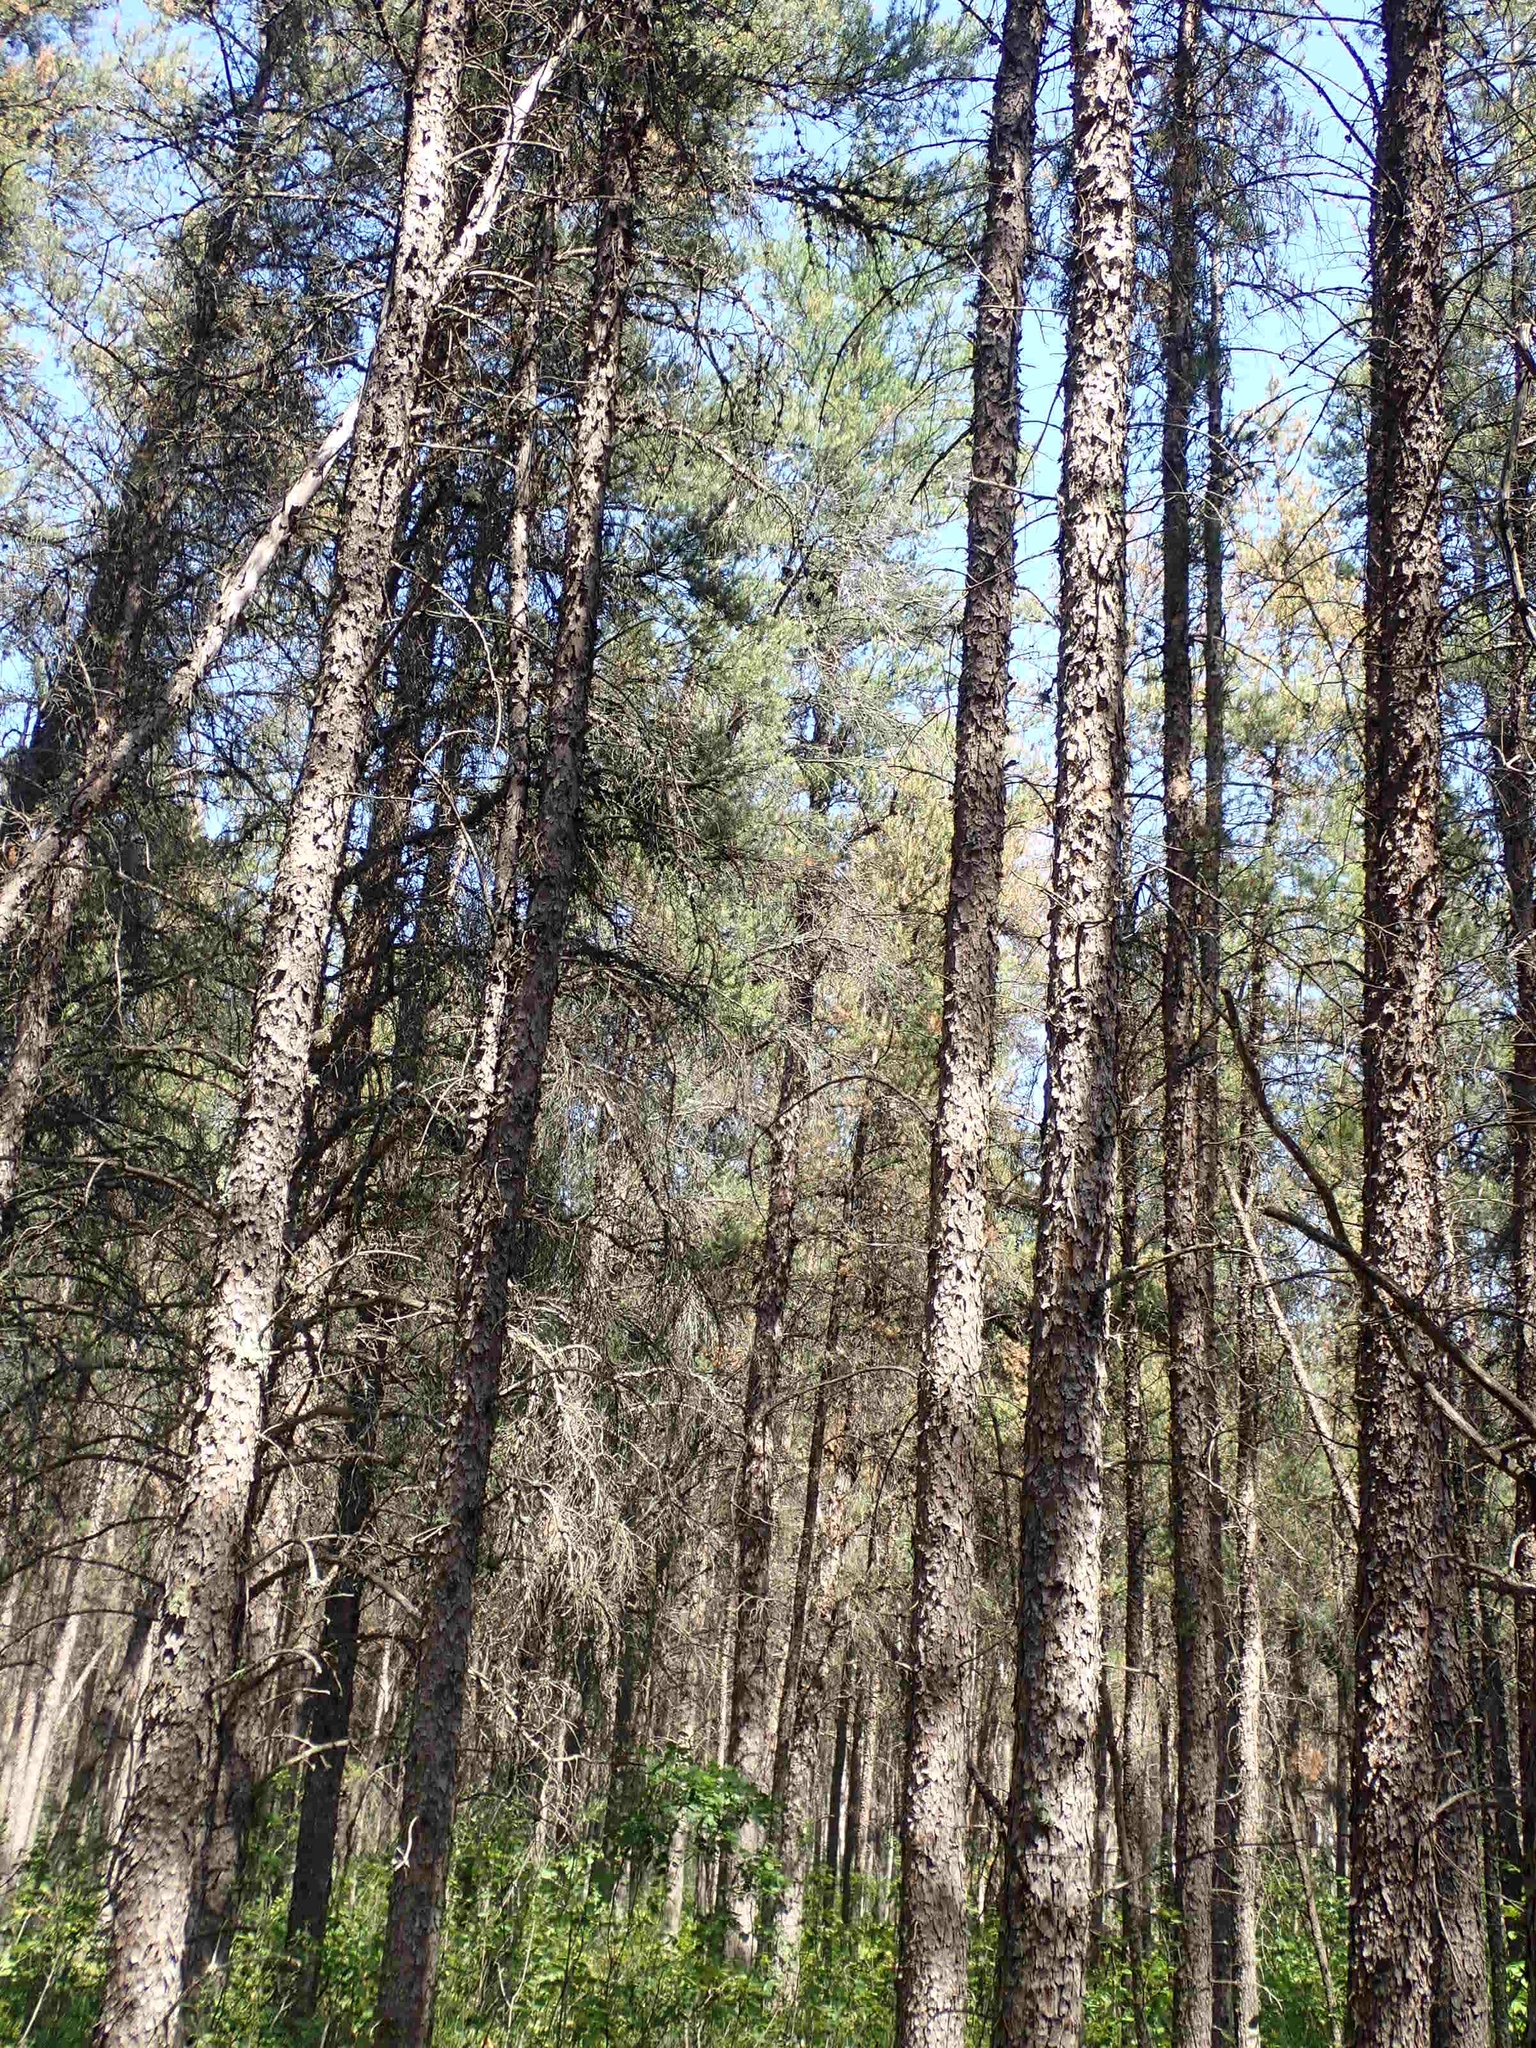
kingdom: Plantae
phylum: Tracheophyta
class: Pinopsida
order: Pinales
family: Pinaceae
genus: Pinus
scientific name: Pinus banksiana
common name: Jack pine
